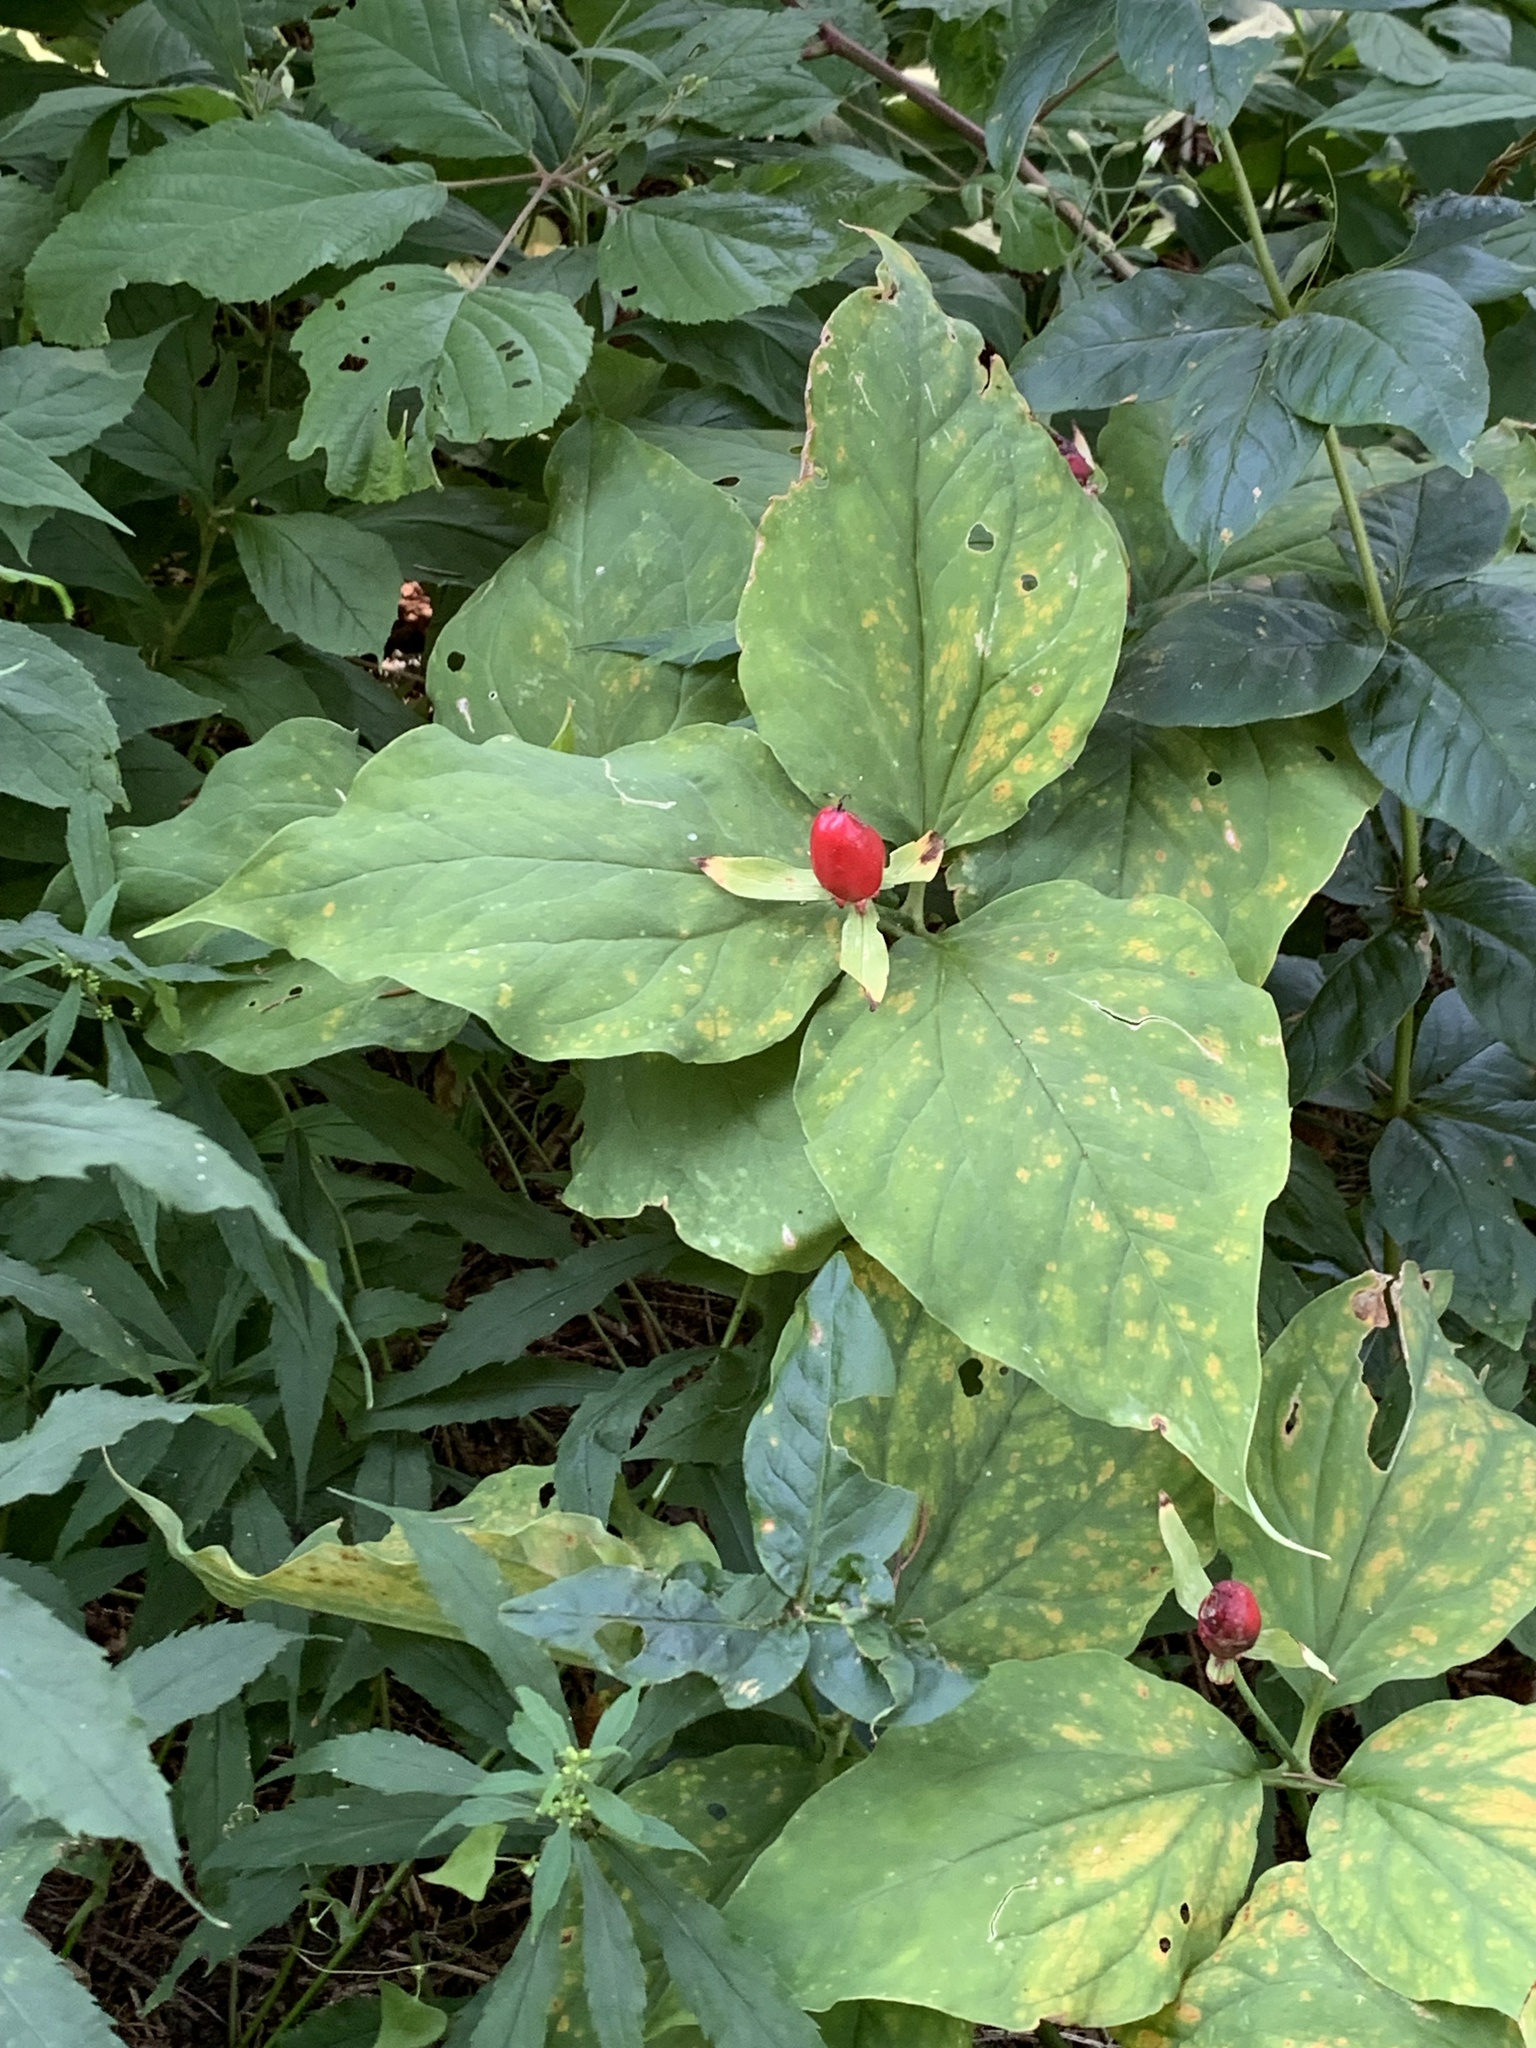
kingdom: Plantae
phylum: Tracheophyta
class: Liliopsida
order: Liliales
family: Melanthiaceae
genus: Trillium
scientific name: Trillium undulatum
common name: Paint trillium
